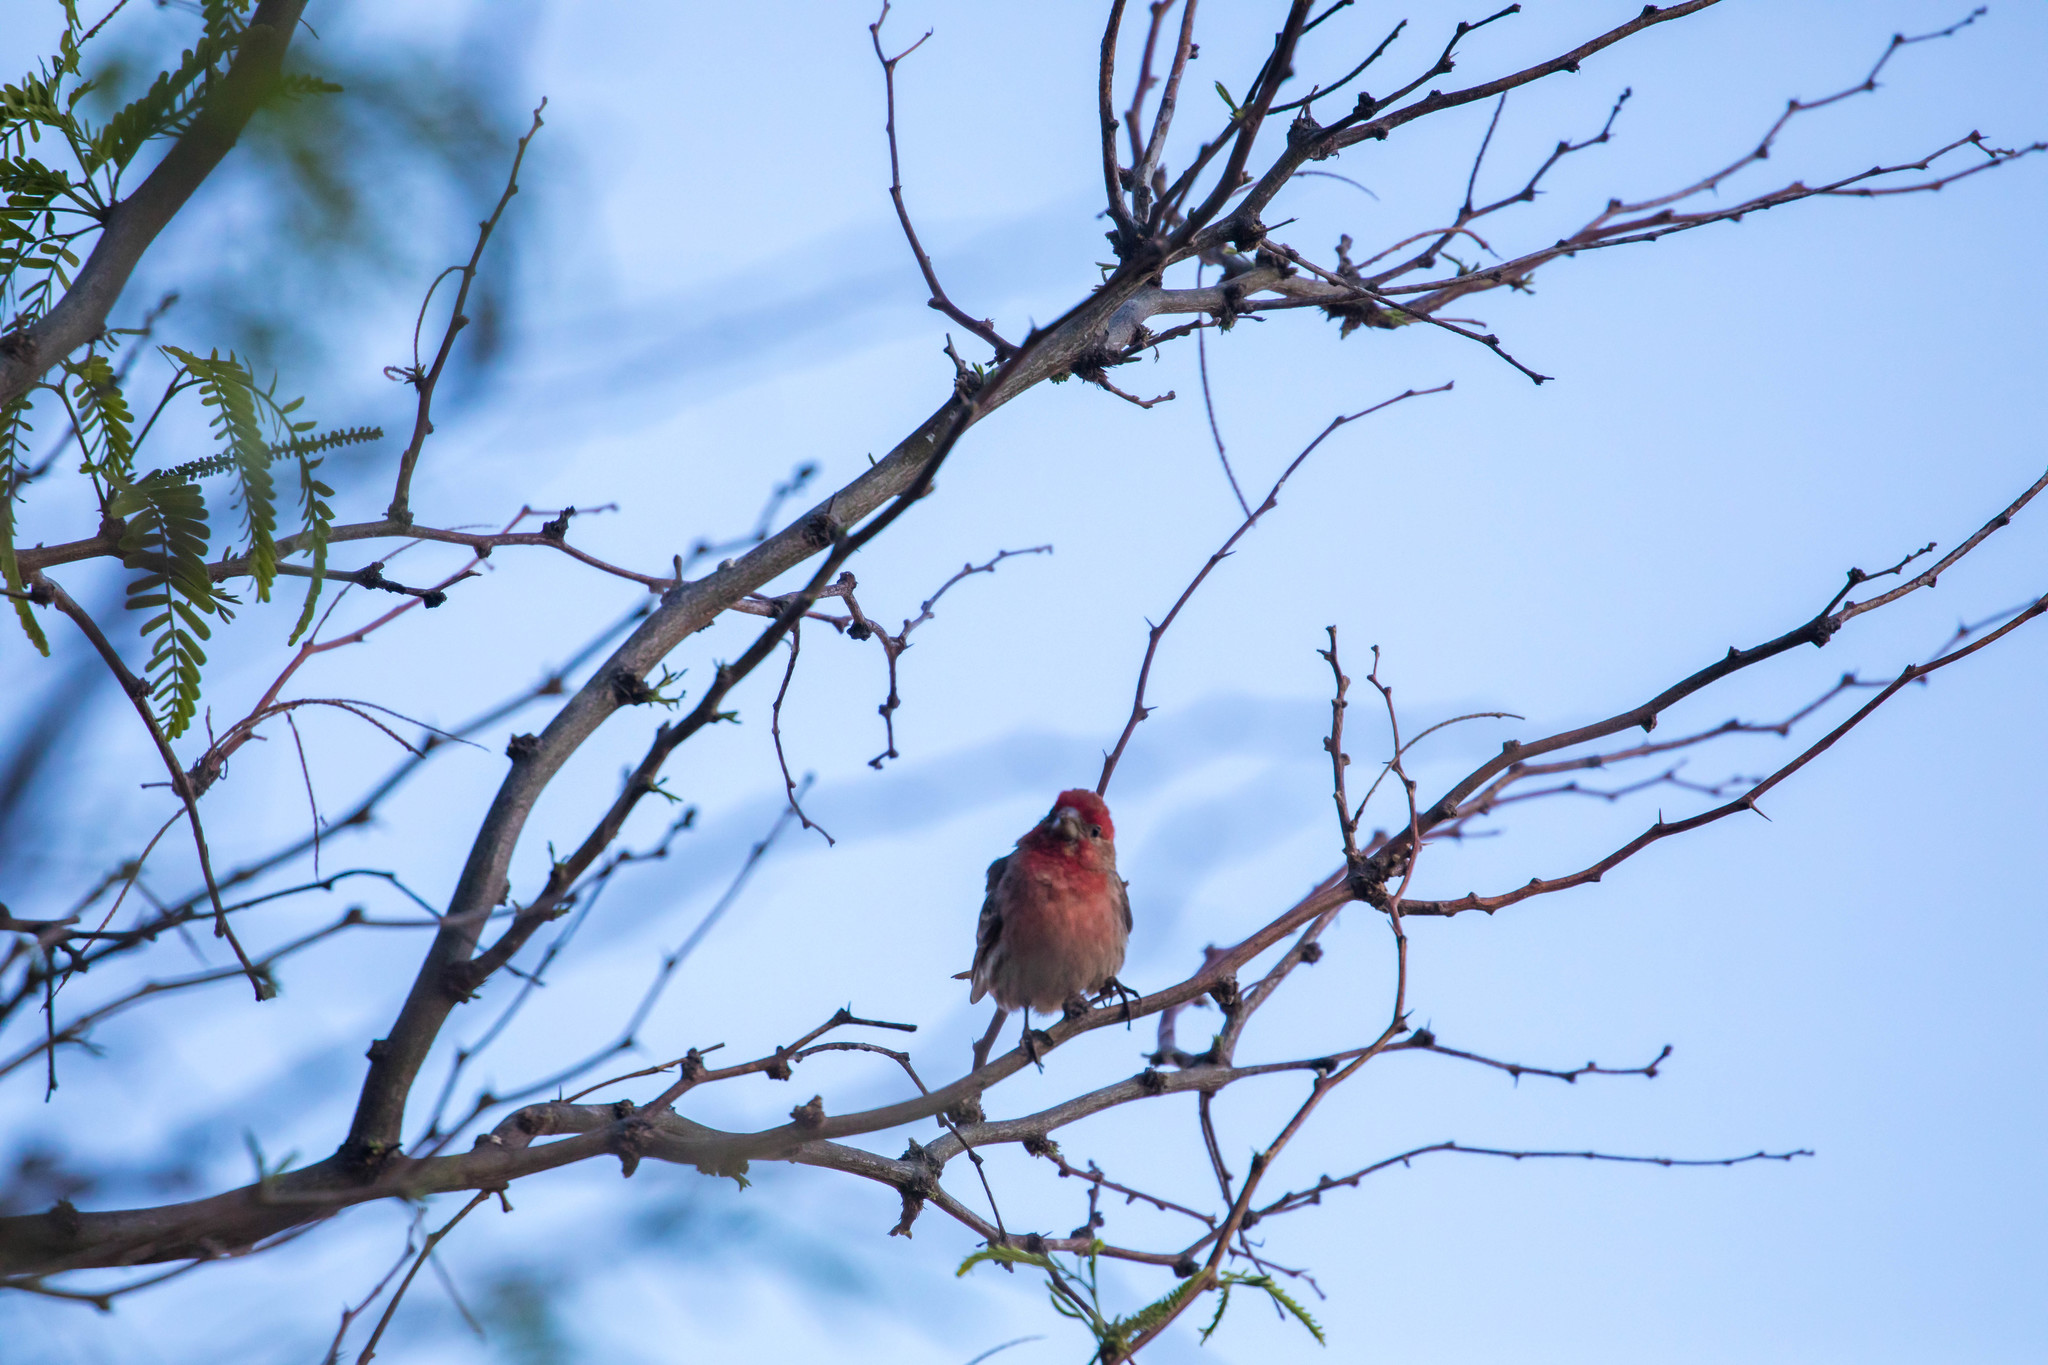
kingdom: Animalia
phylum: Chordata
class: Aves
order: Passeriformes
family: Fringillidae
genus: Haemorhous
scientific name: Haemorhous mexicanus
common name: House finch
